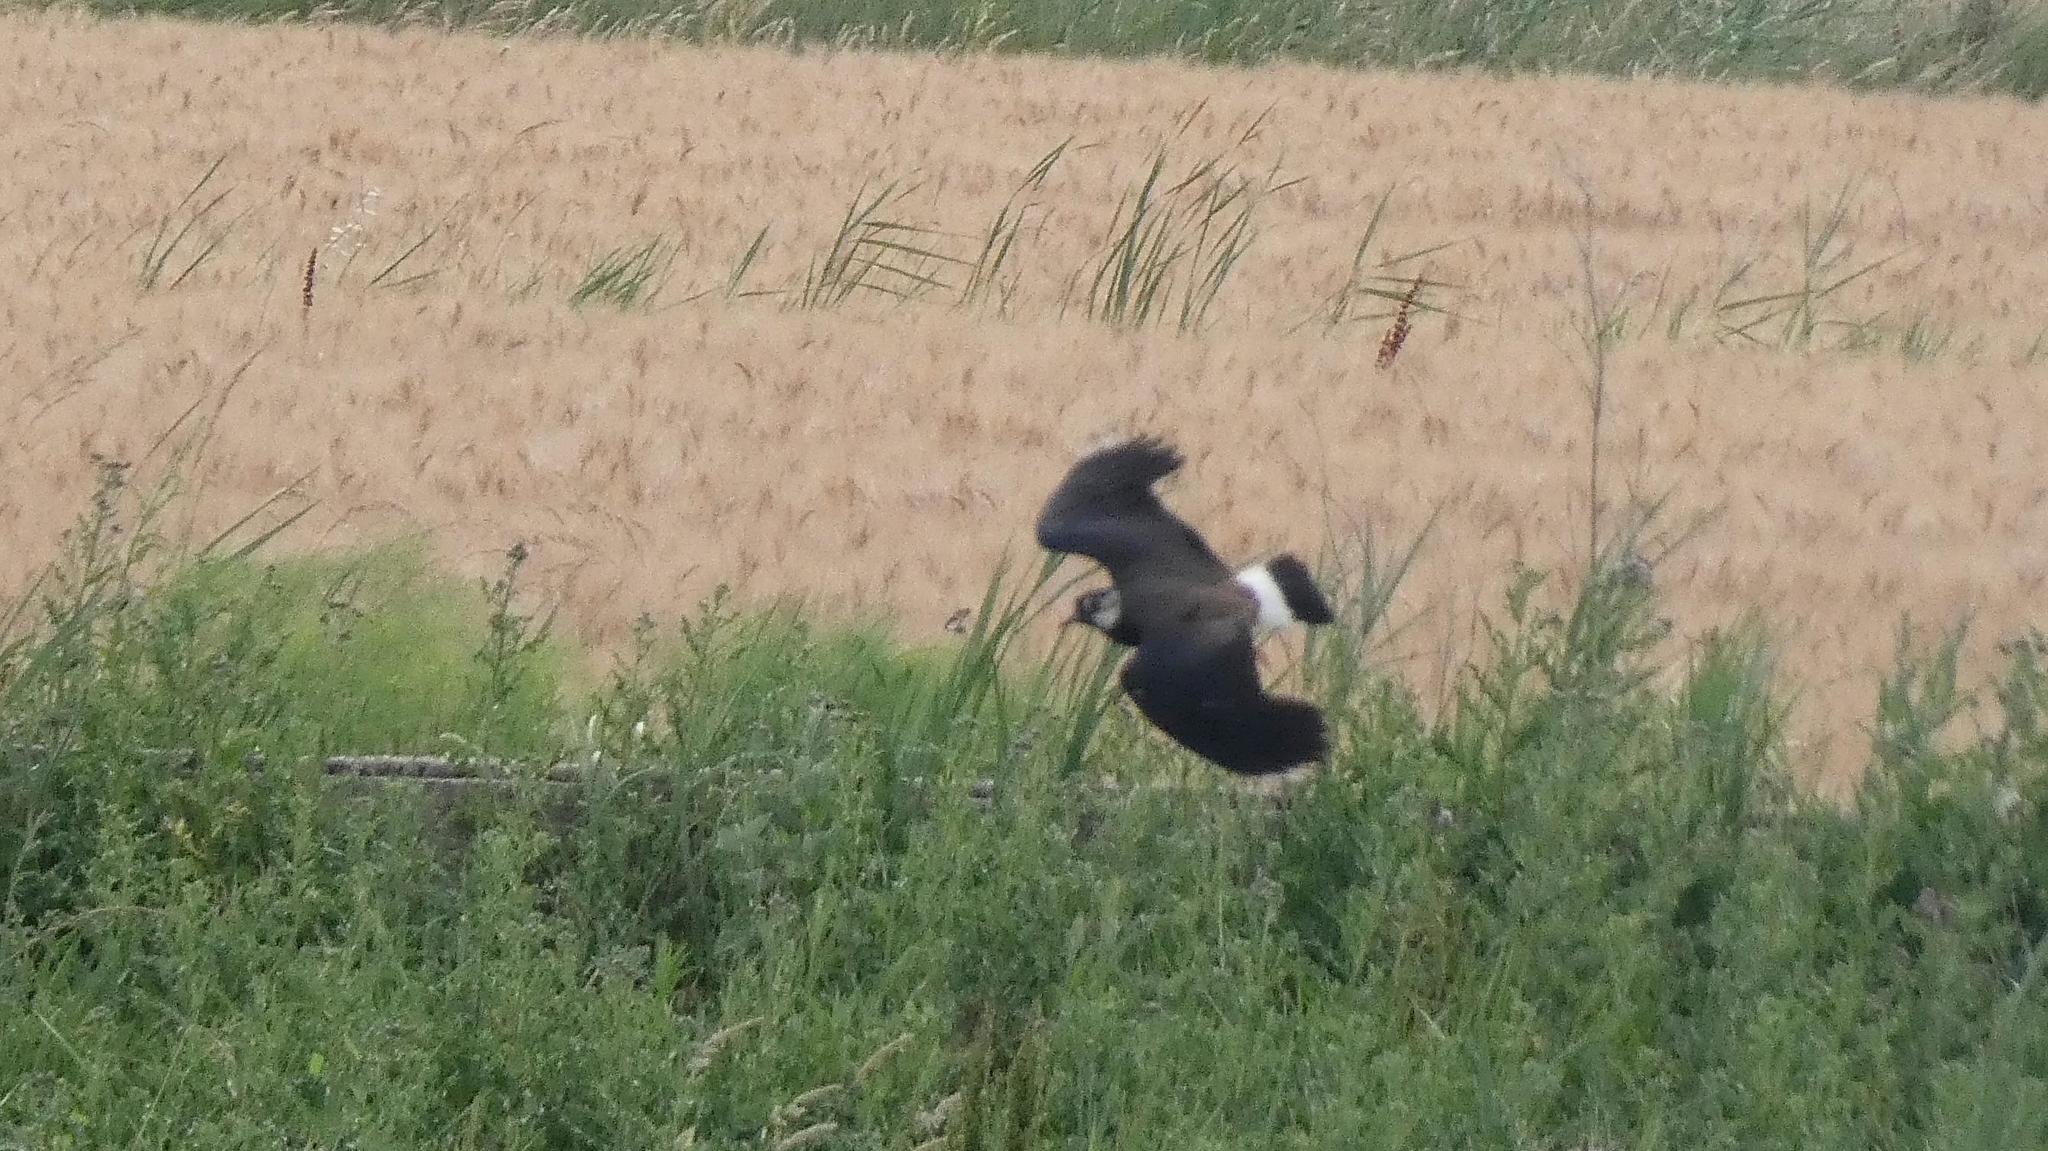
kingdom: Animalia
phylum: Chordata
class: Aves
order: Charadriiformes
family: Charadriidae
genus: Vanellus
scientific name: Vanellus vanellus
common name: Northern lapwing
